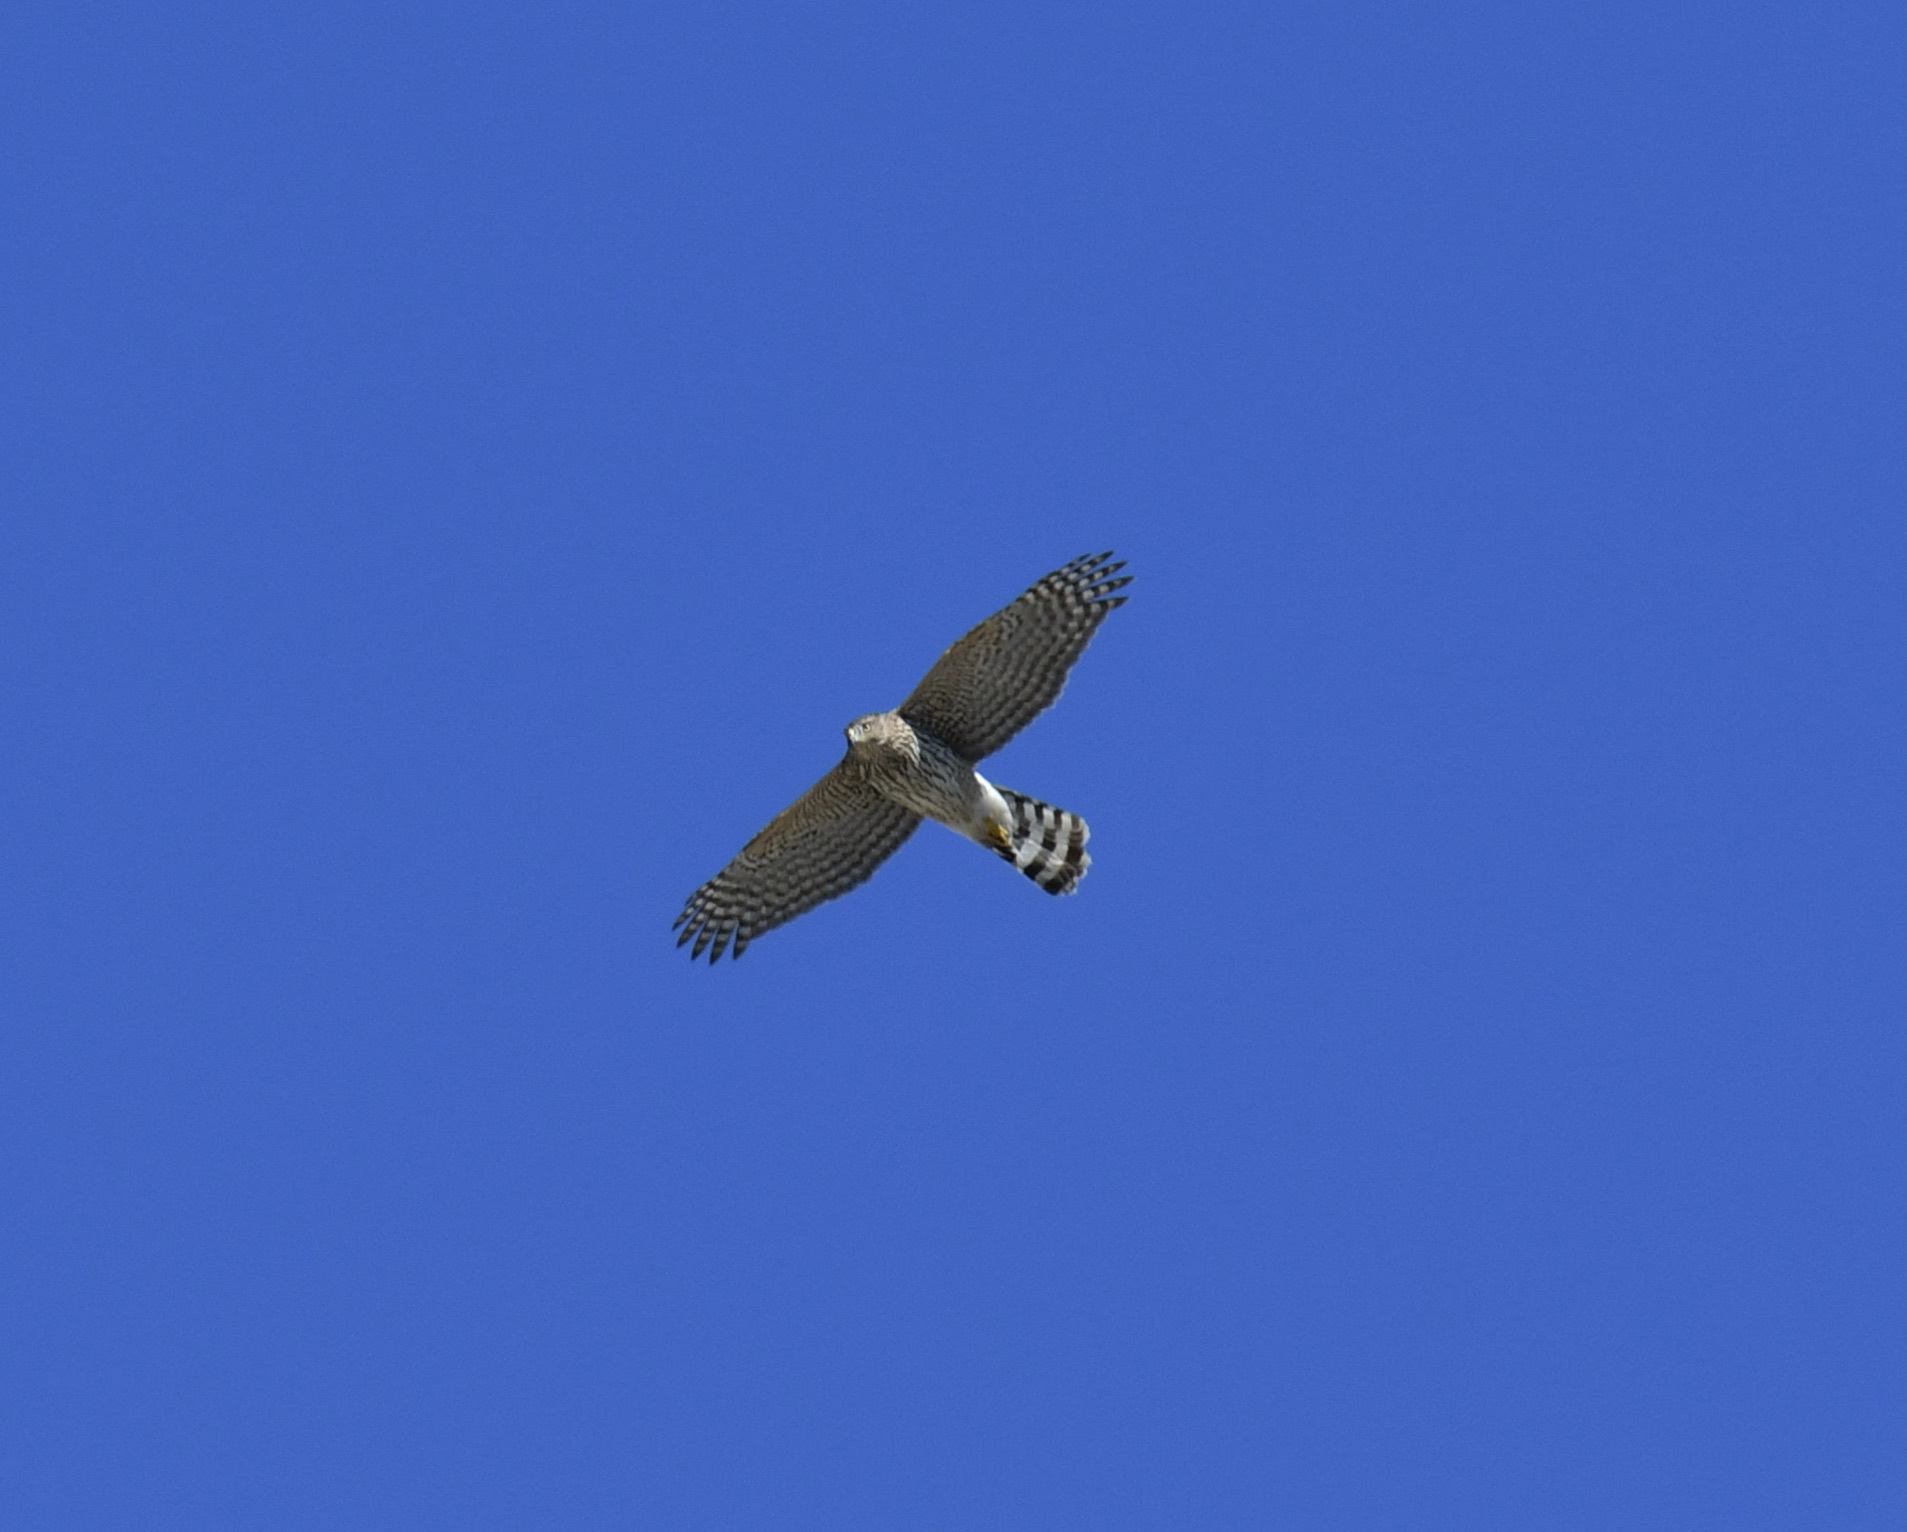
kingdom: Animalia
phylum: Chordata
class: Aves
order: Accipitriformes
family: Accipitridae
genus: Accipiter
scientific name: Accipiter cooperii
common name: Cooper's hawk
